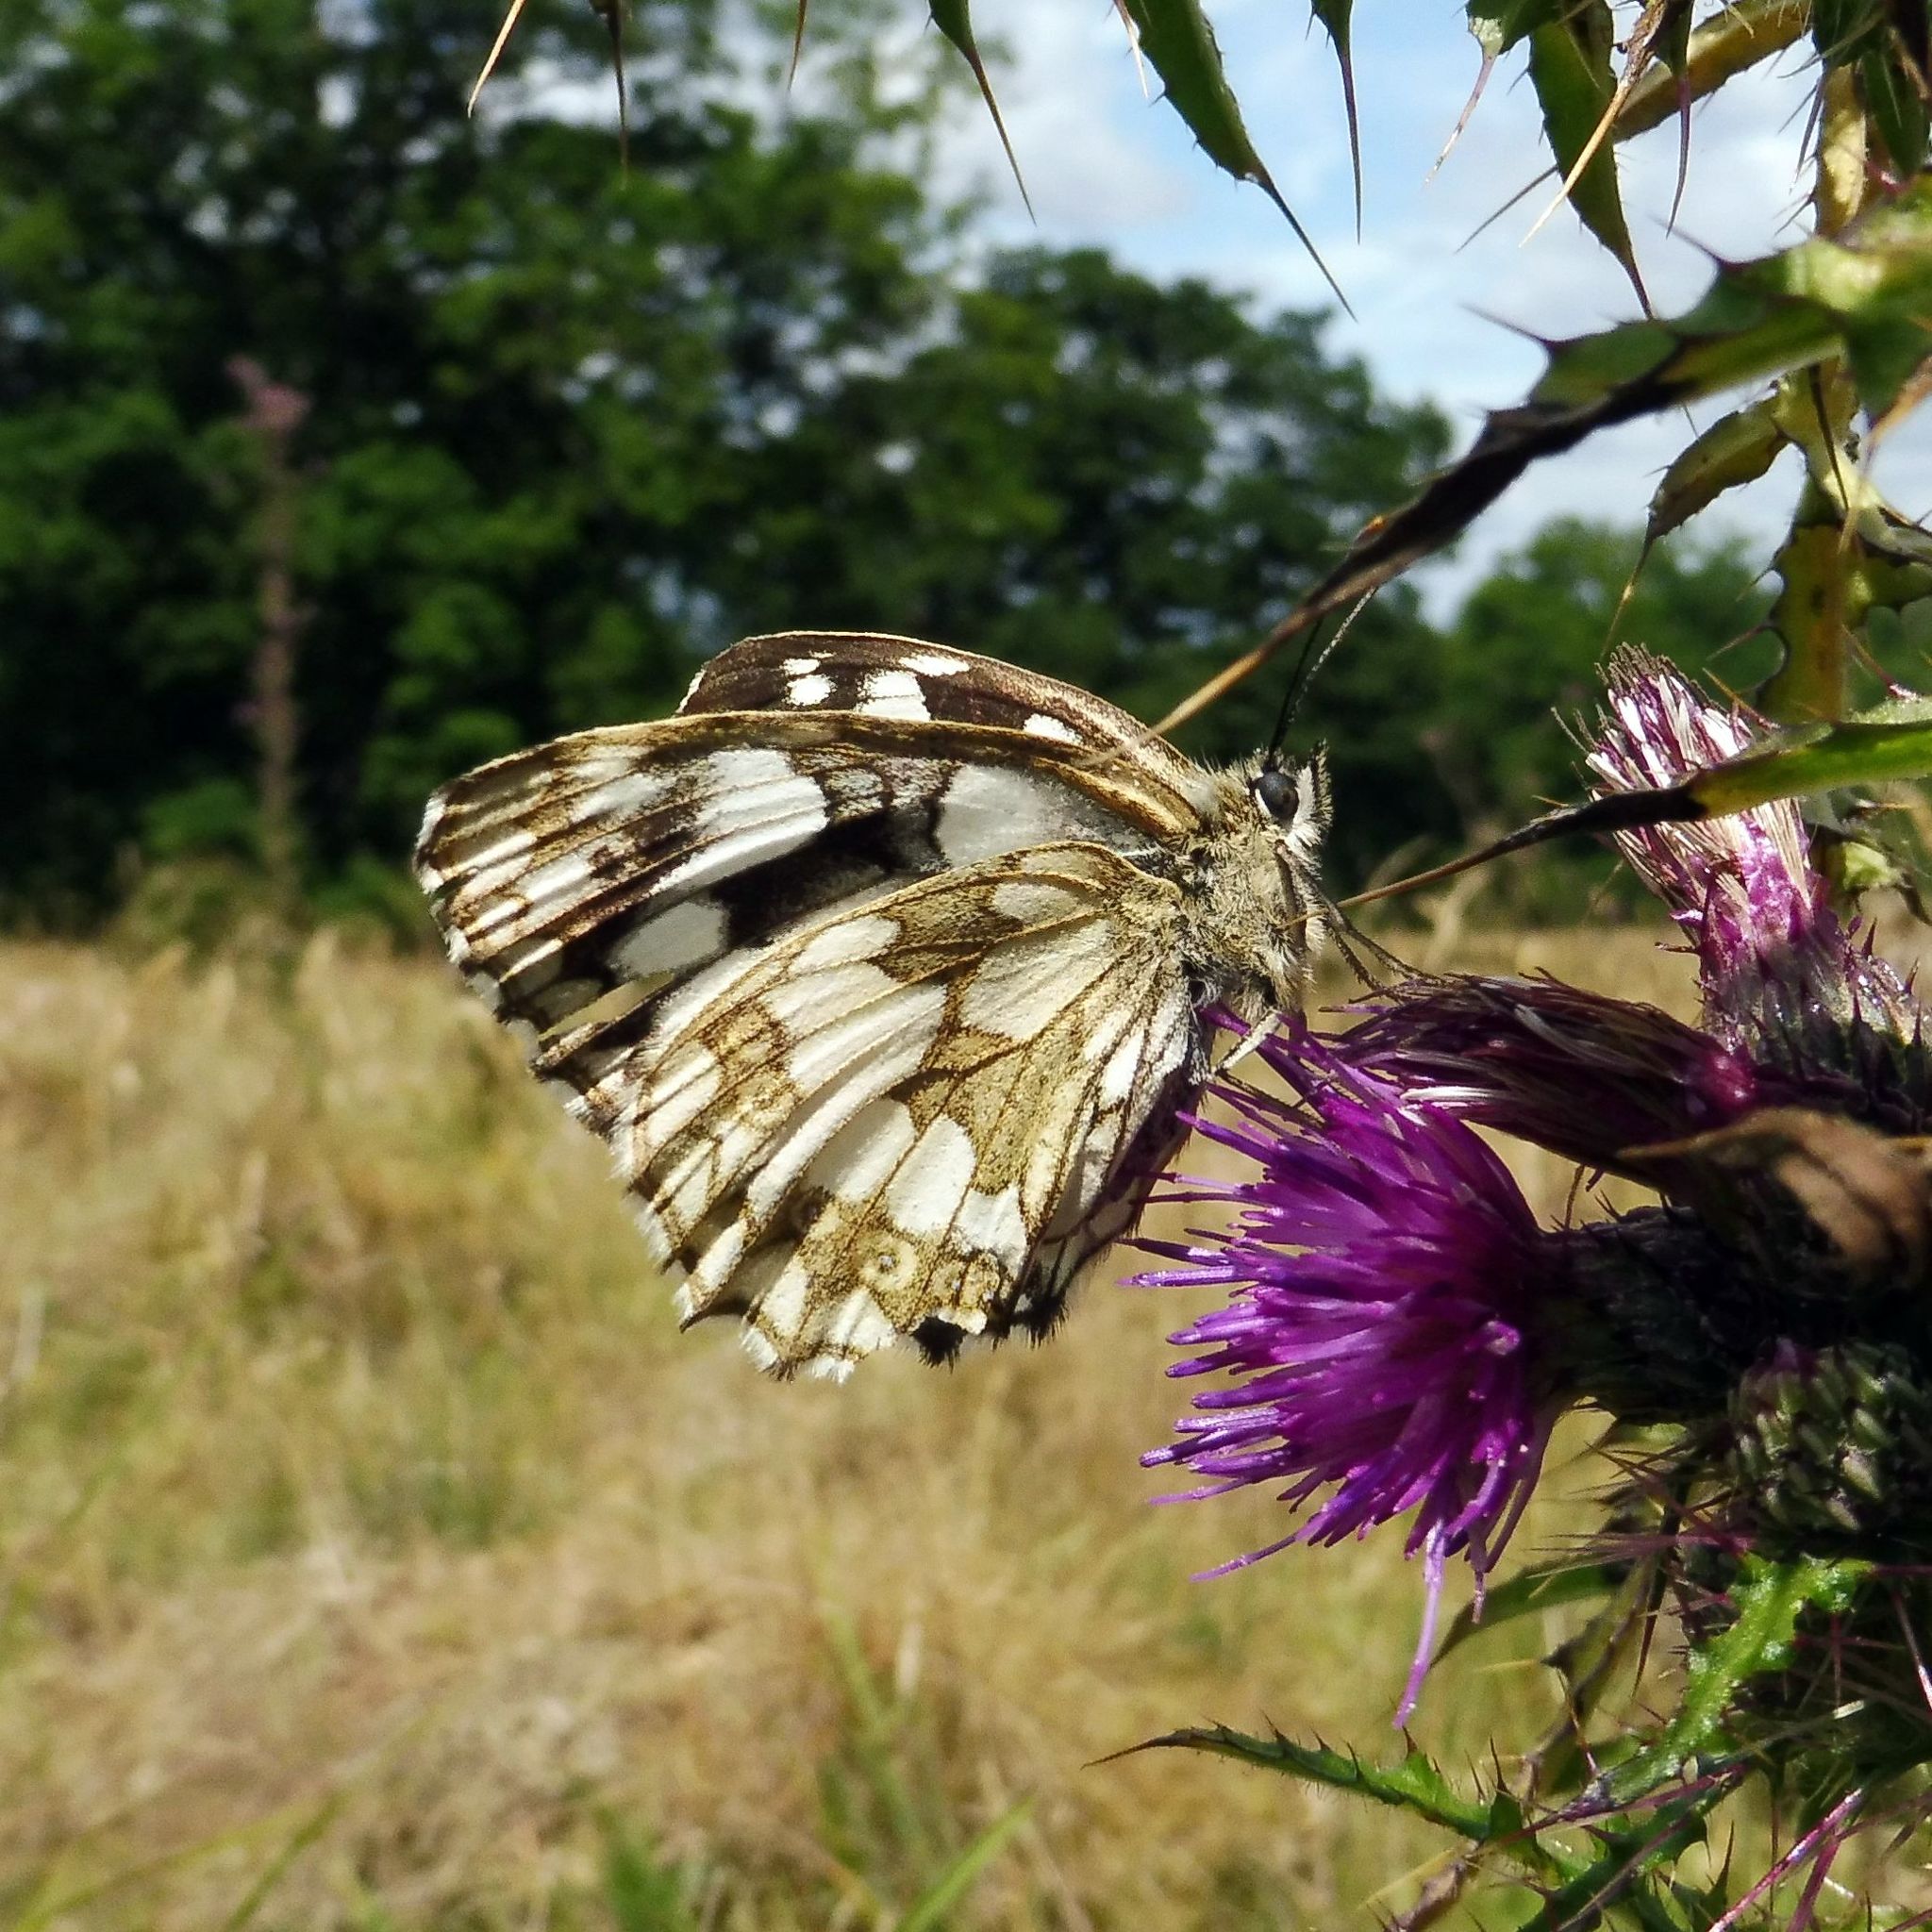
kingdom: Animalia
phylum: Arthropoda
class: Insecta
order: Lepidoptera
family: Nymphalidae
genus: Melanargia
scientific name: Melanargia galathea
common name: Marbled white
